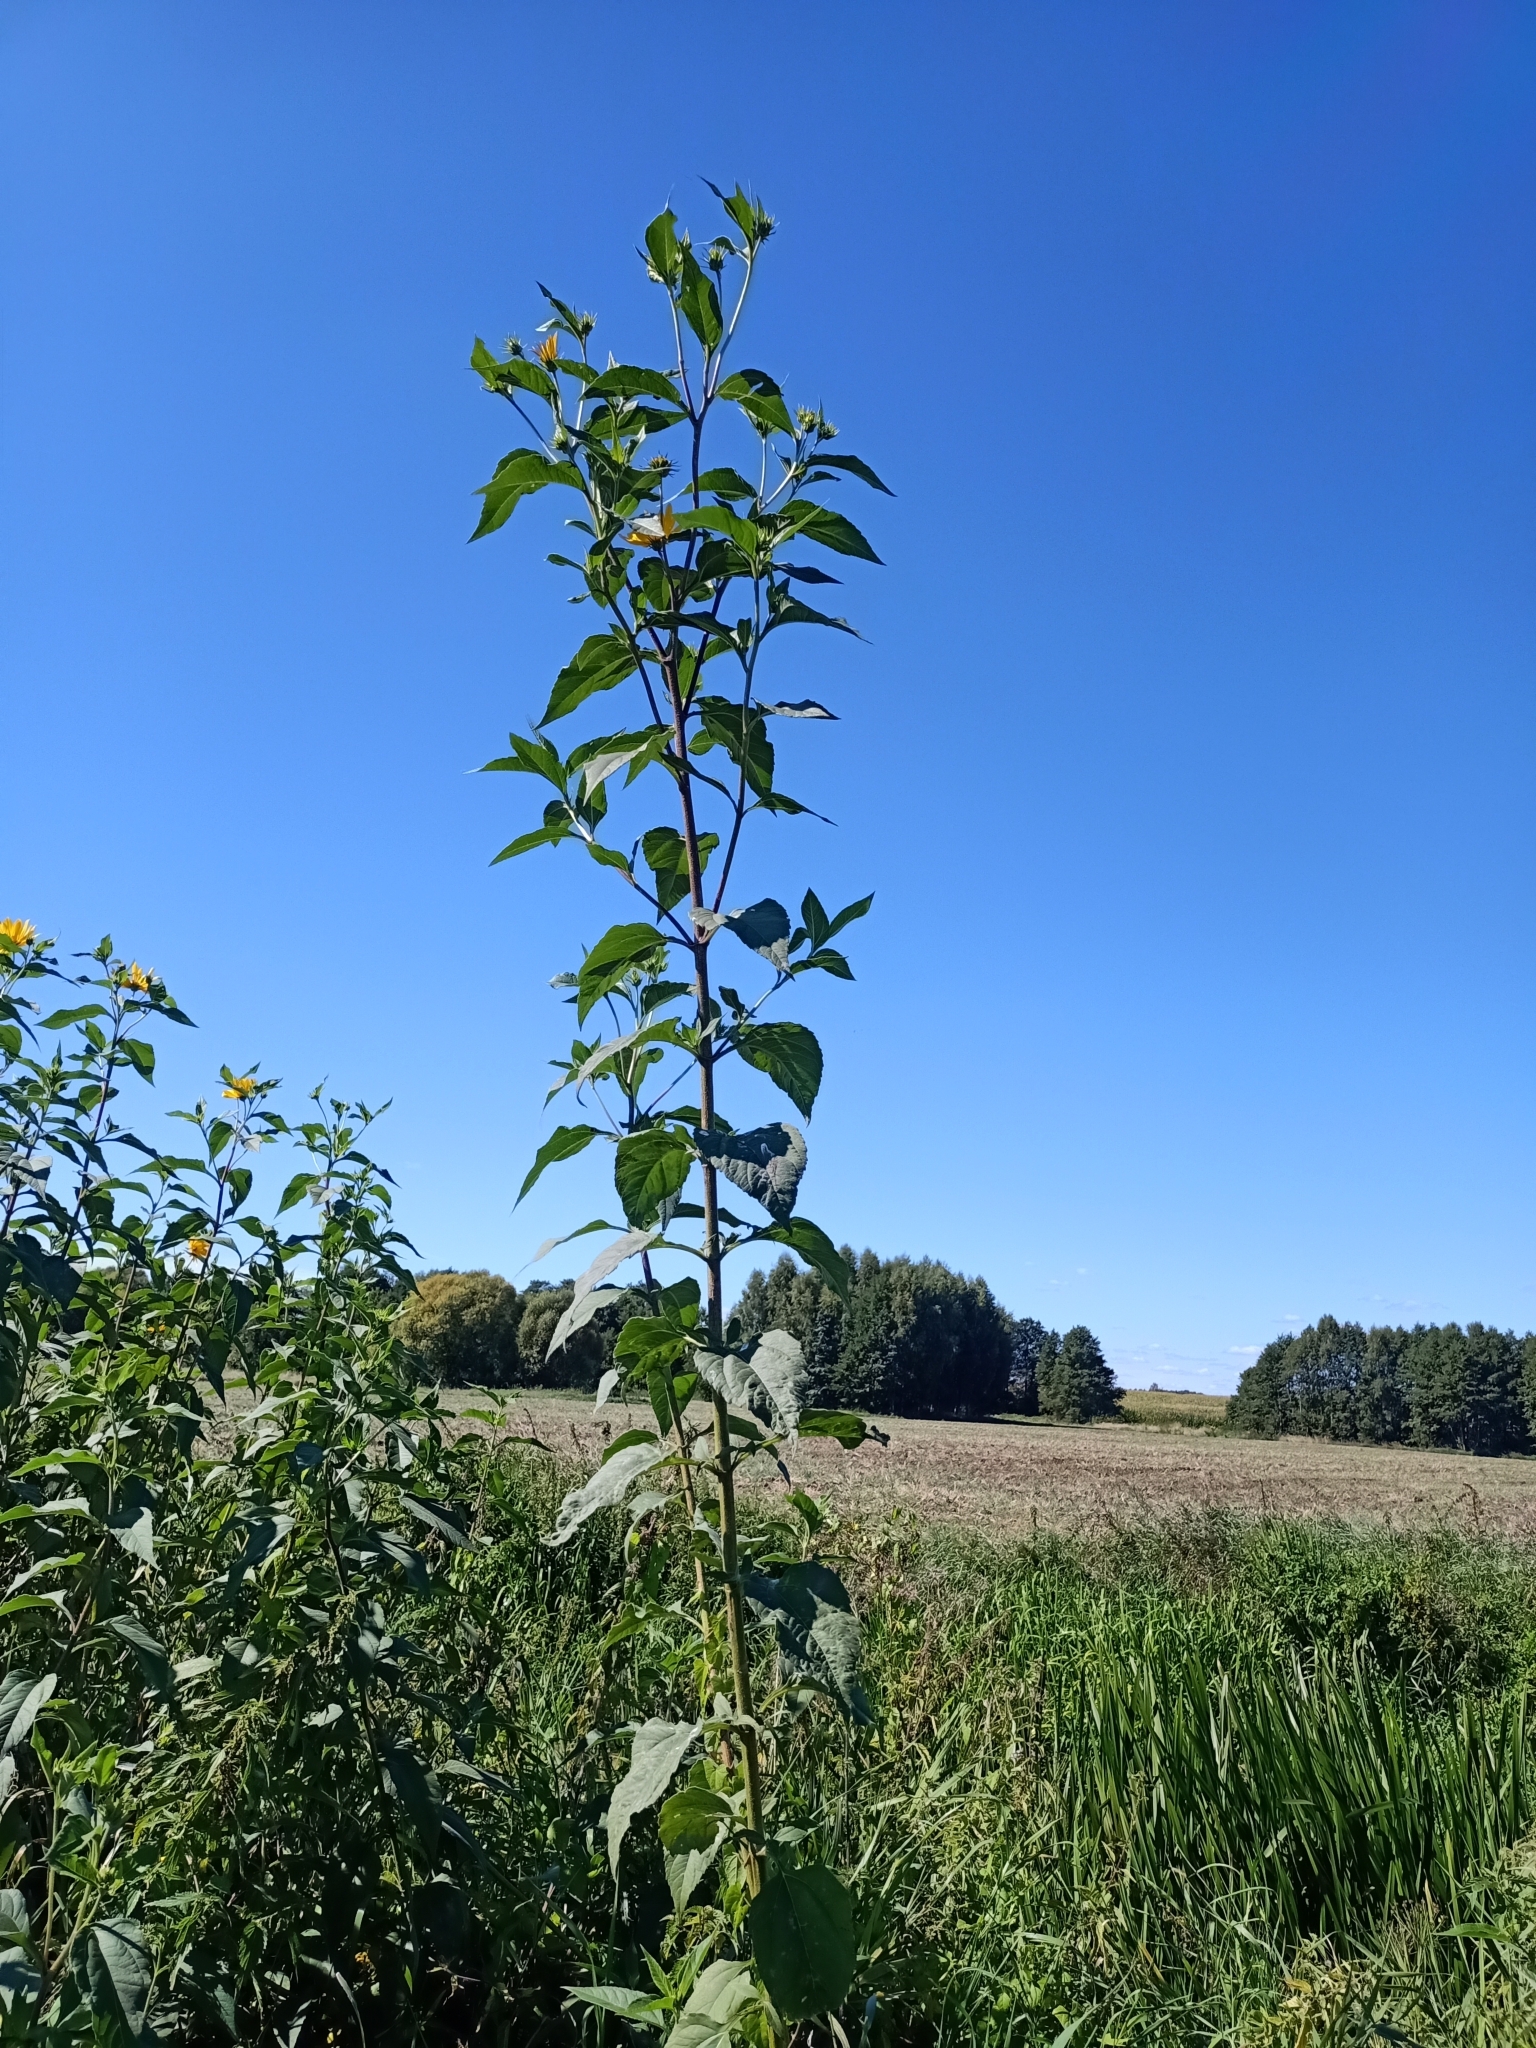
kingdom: Plantae
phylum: Tracheophyta
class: Magnoliopsida
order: Asterales
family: Asteraceae
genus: Helianthus
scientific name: Helianthus tuberosus
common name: Jerusalem artichoke
